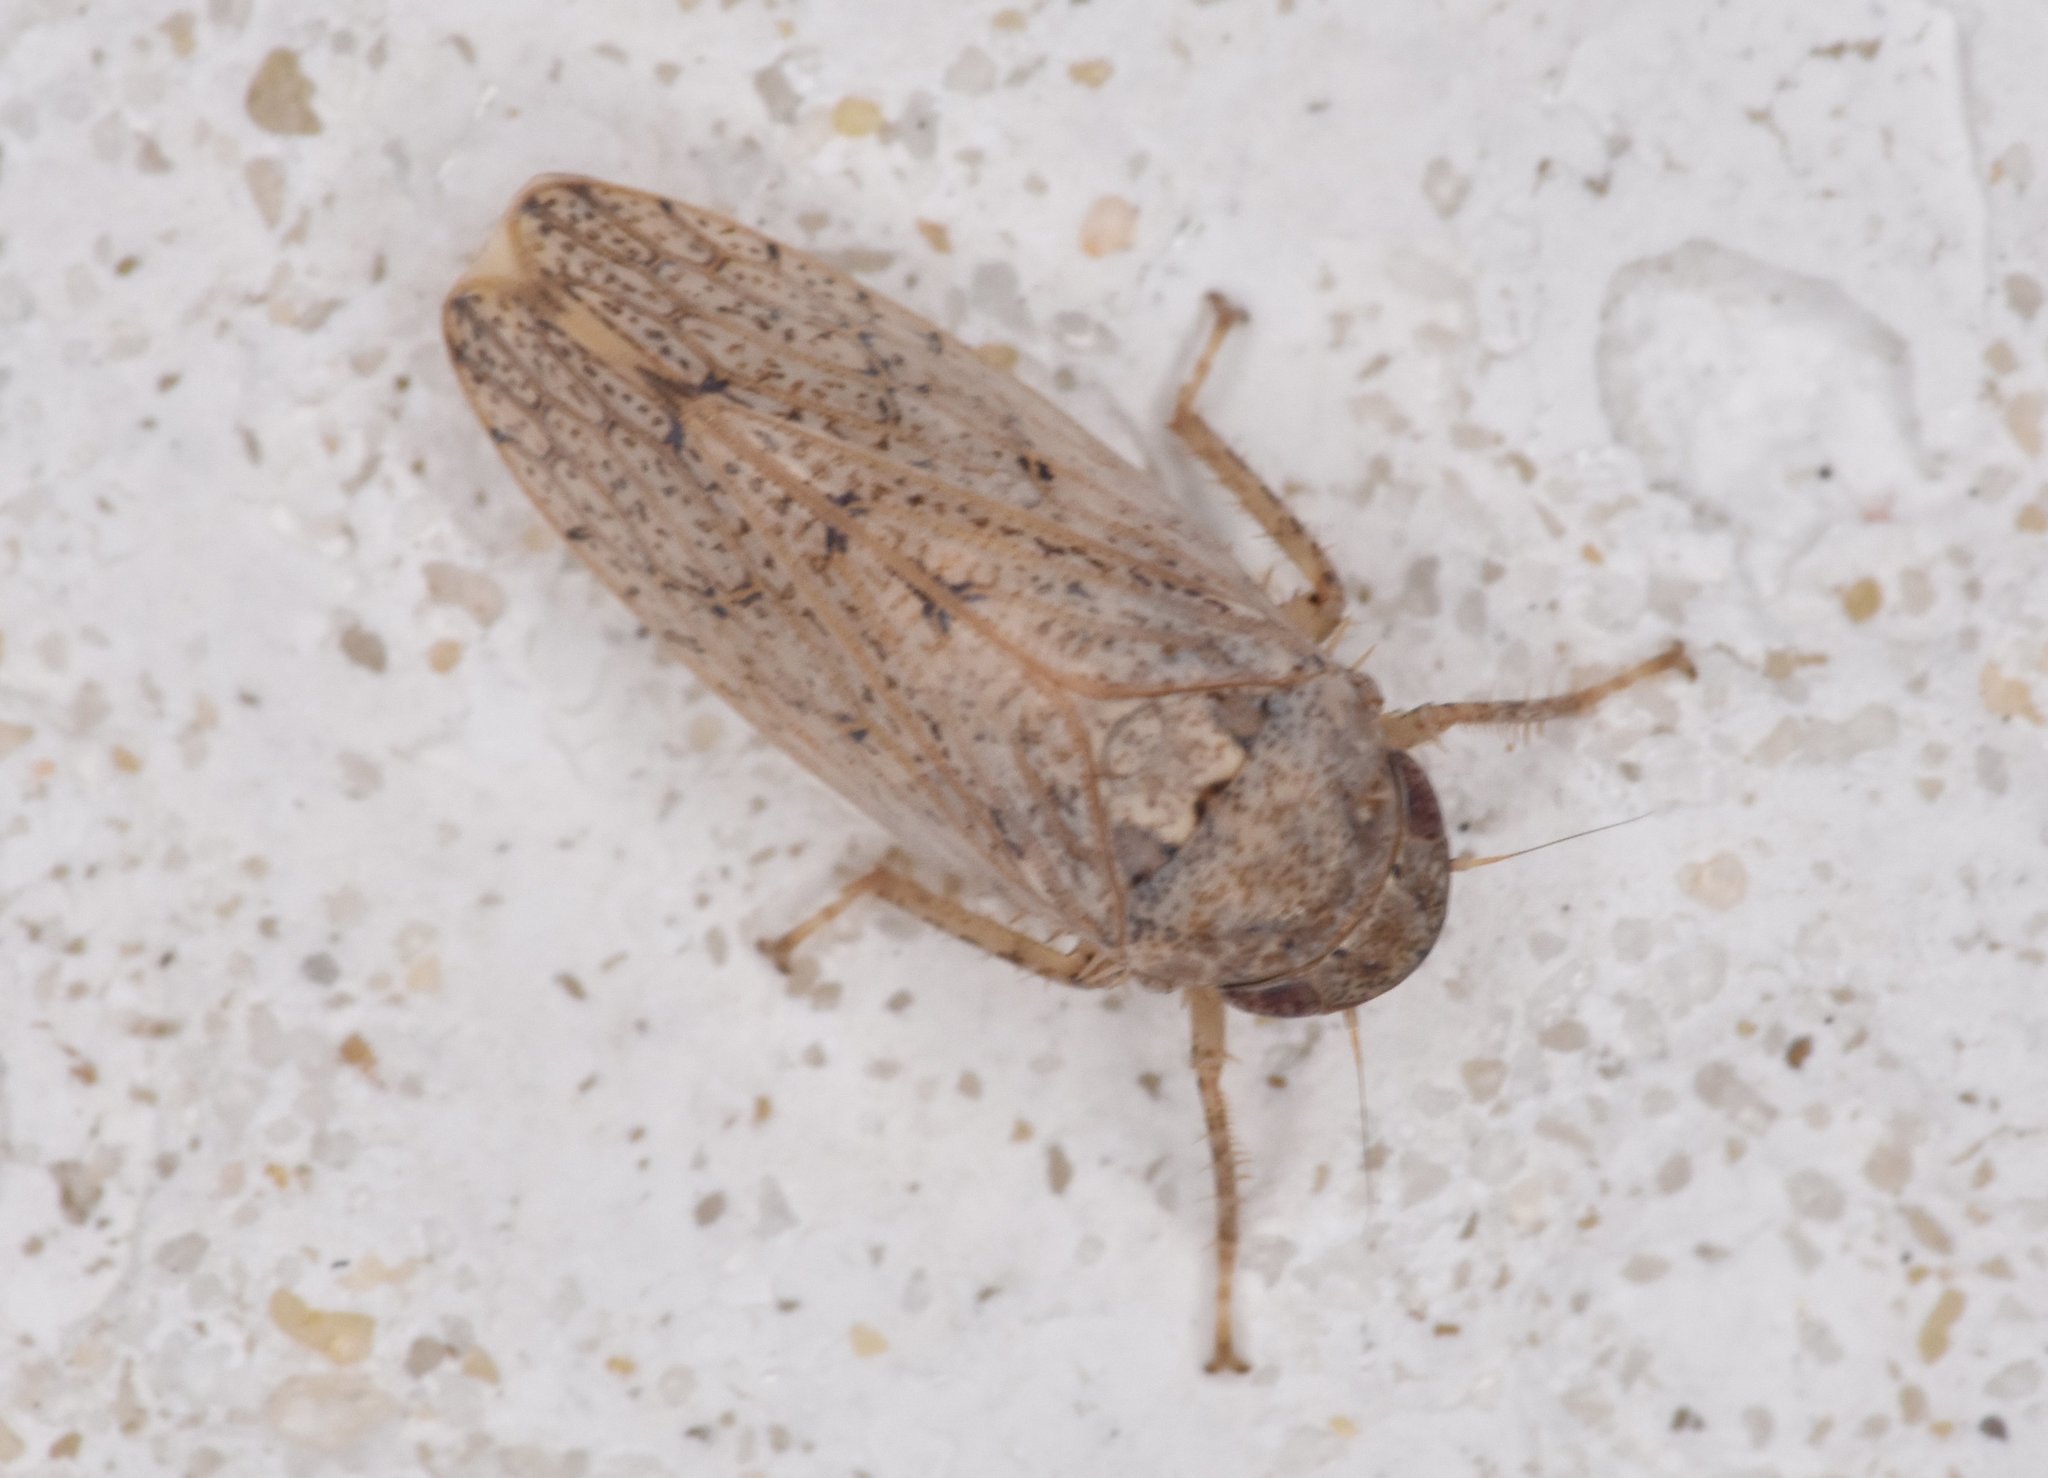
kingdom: Animalia
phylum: Arthropoda
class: Insecta
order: Hemiptera
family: Cicadellidae
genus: Curtara
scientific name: Curtara insularis
